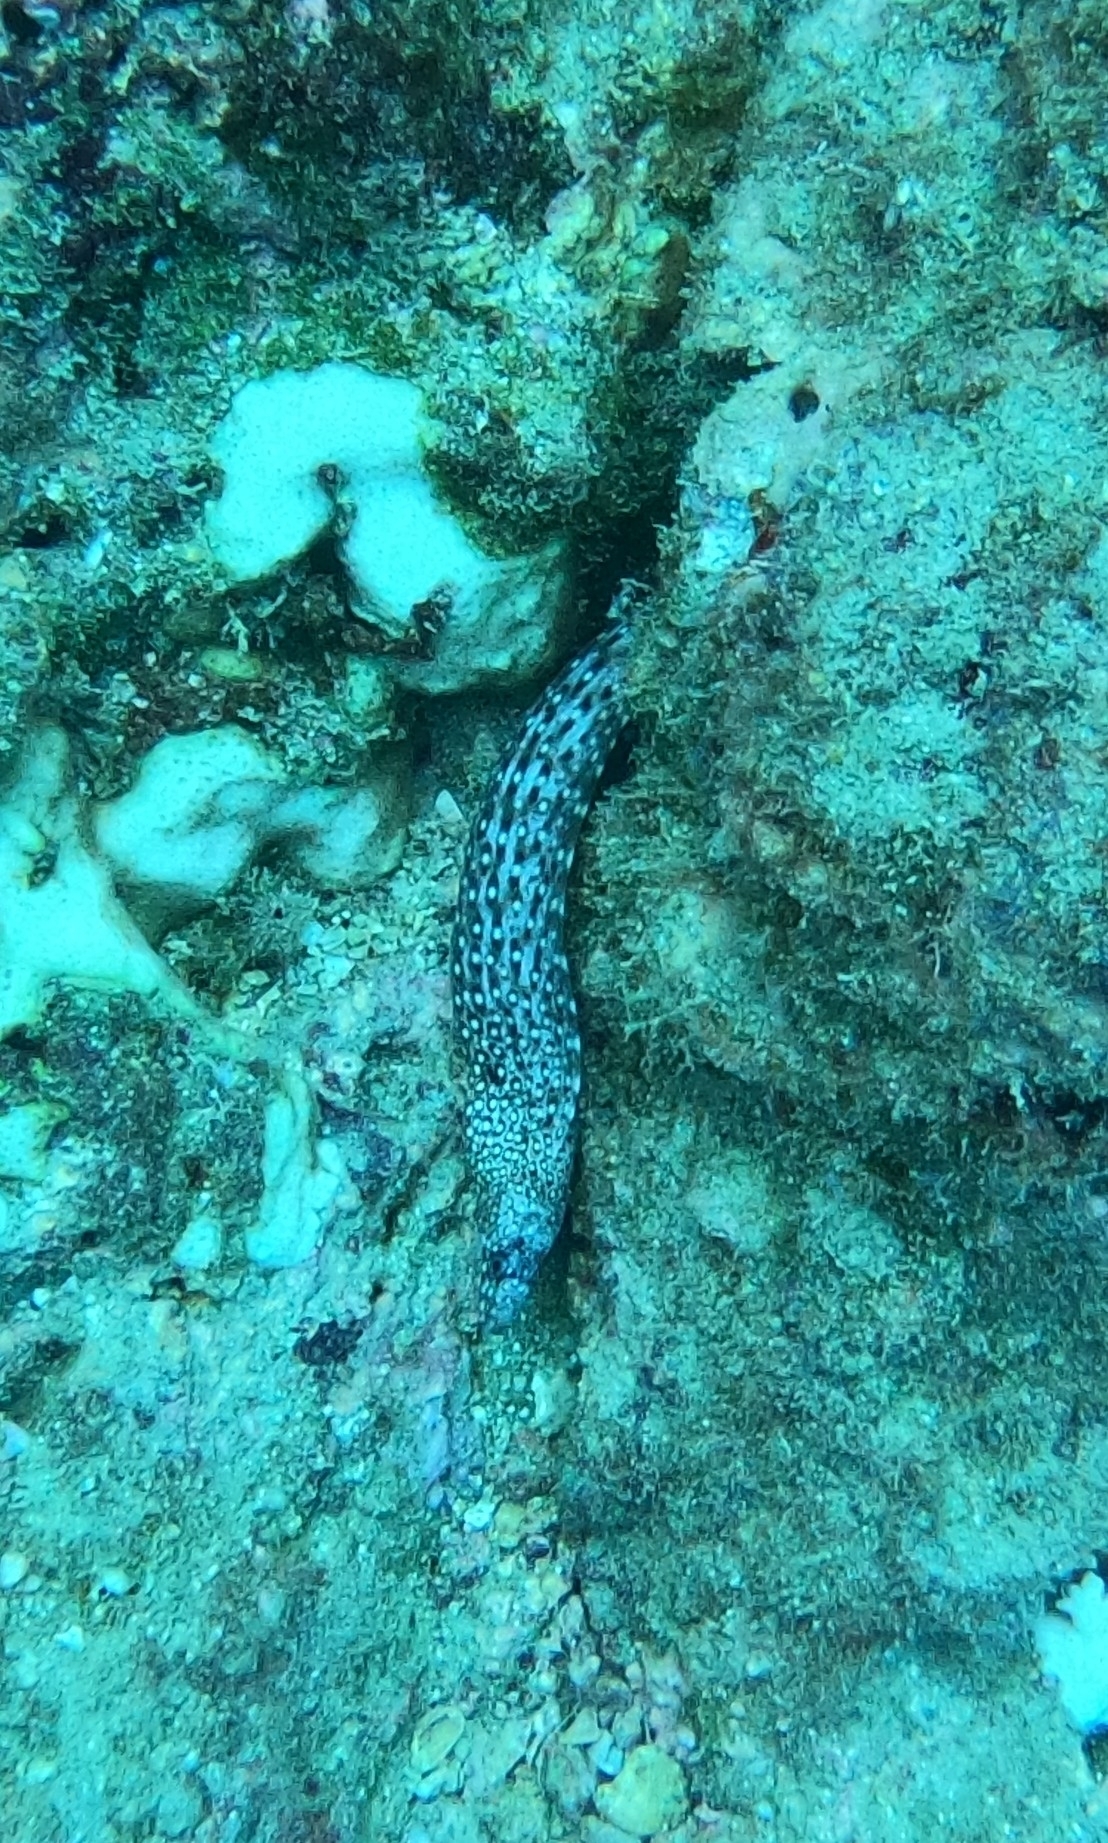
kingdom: Animalia
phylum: Chordata
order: Anguilliformes
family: Muraenidae
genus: Muraena
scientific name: Muraena lentiginosa
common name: Jewel moray
